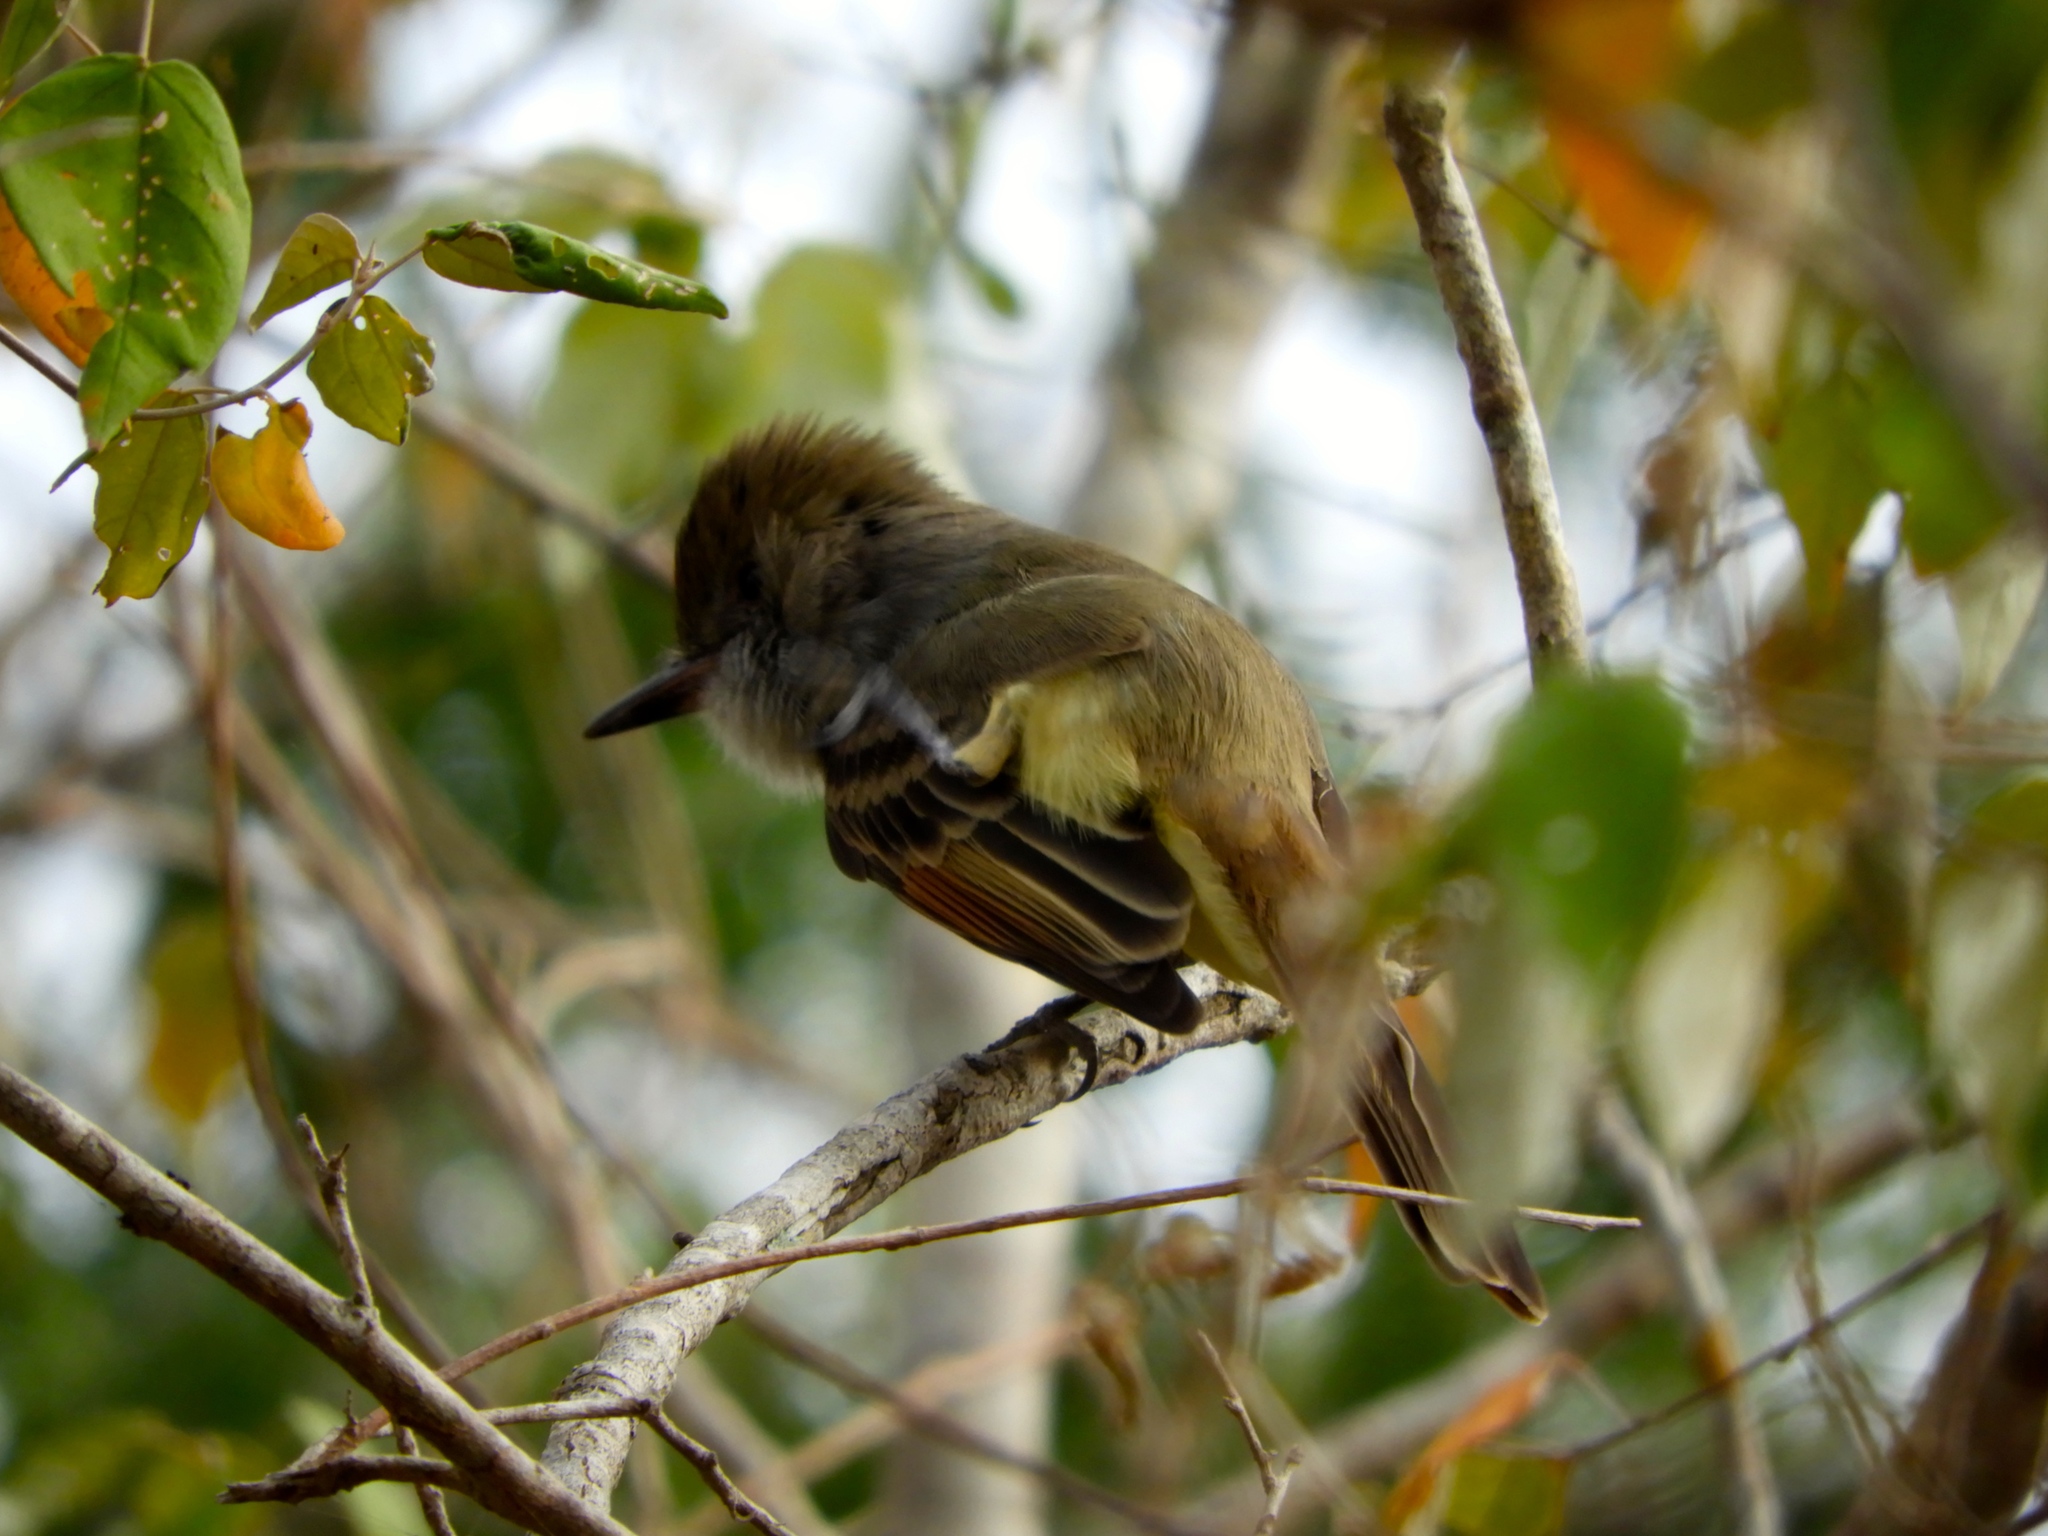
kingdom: Animalia
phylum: Chordata
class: Aves
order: Passeriformes
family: Tyrannidae
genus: Myiarchus
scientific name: Myiarchus
